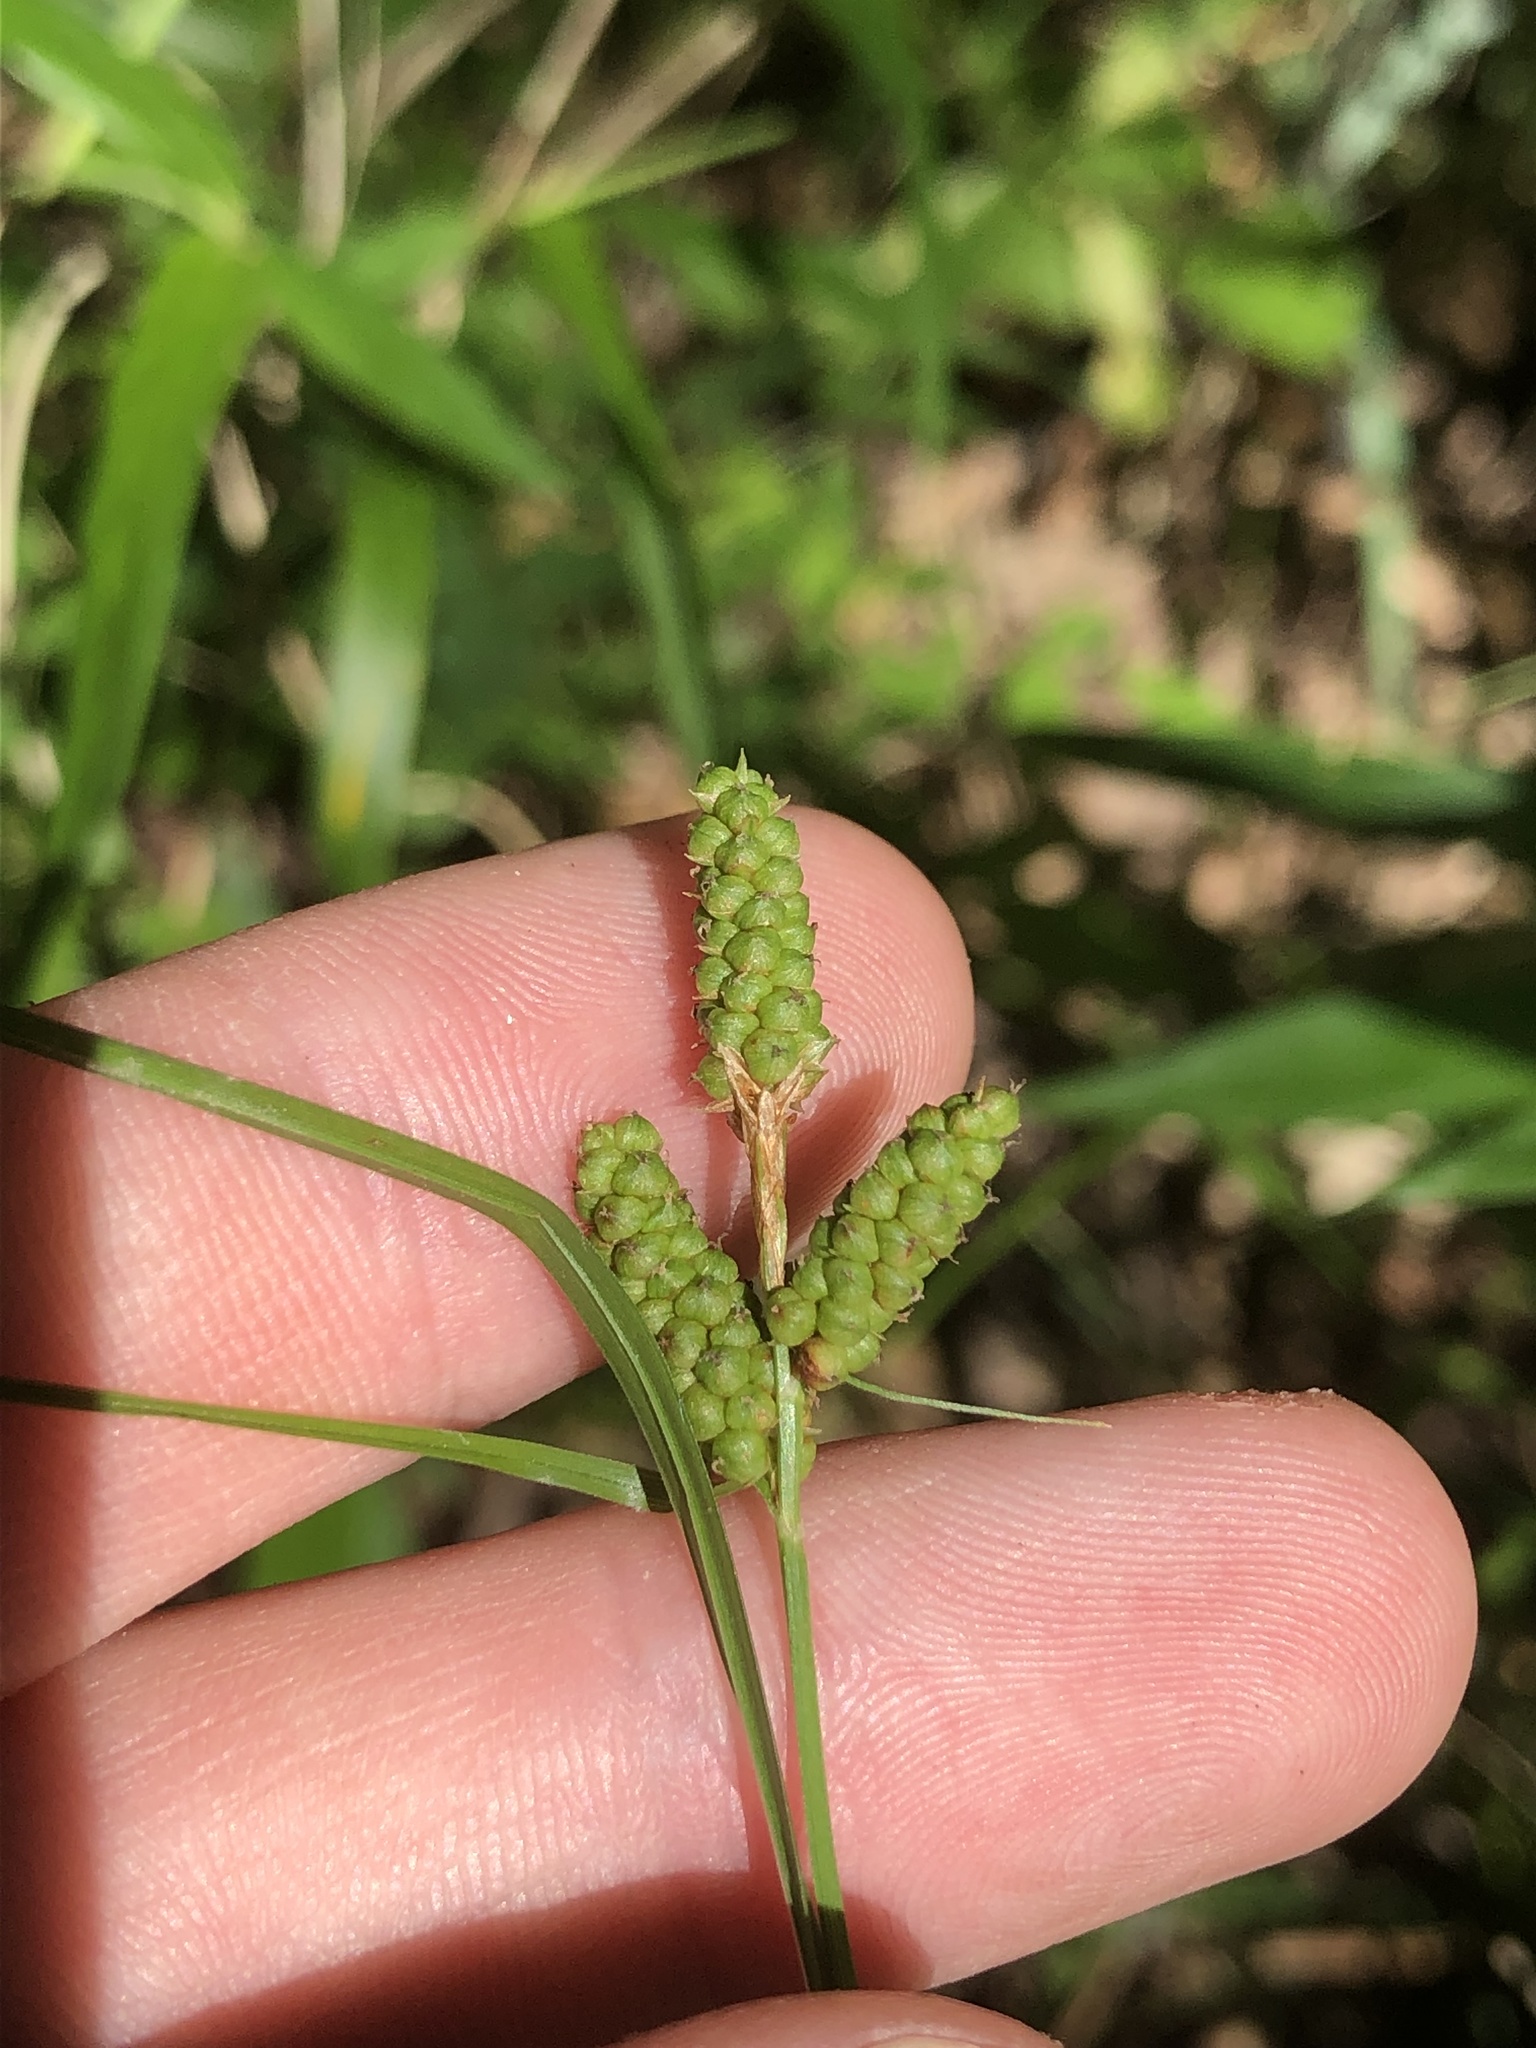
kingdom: Plantae
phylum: Tracheophyta
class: Liliopsida
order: Poales
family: Cyperaceae
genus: Carex
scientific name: Carex caroliniana
